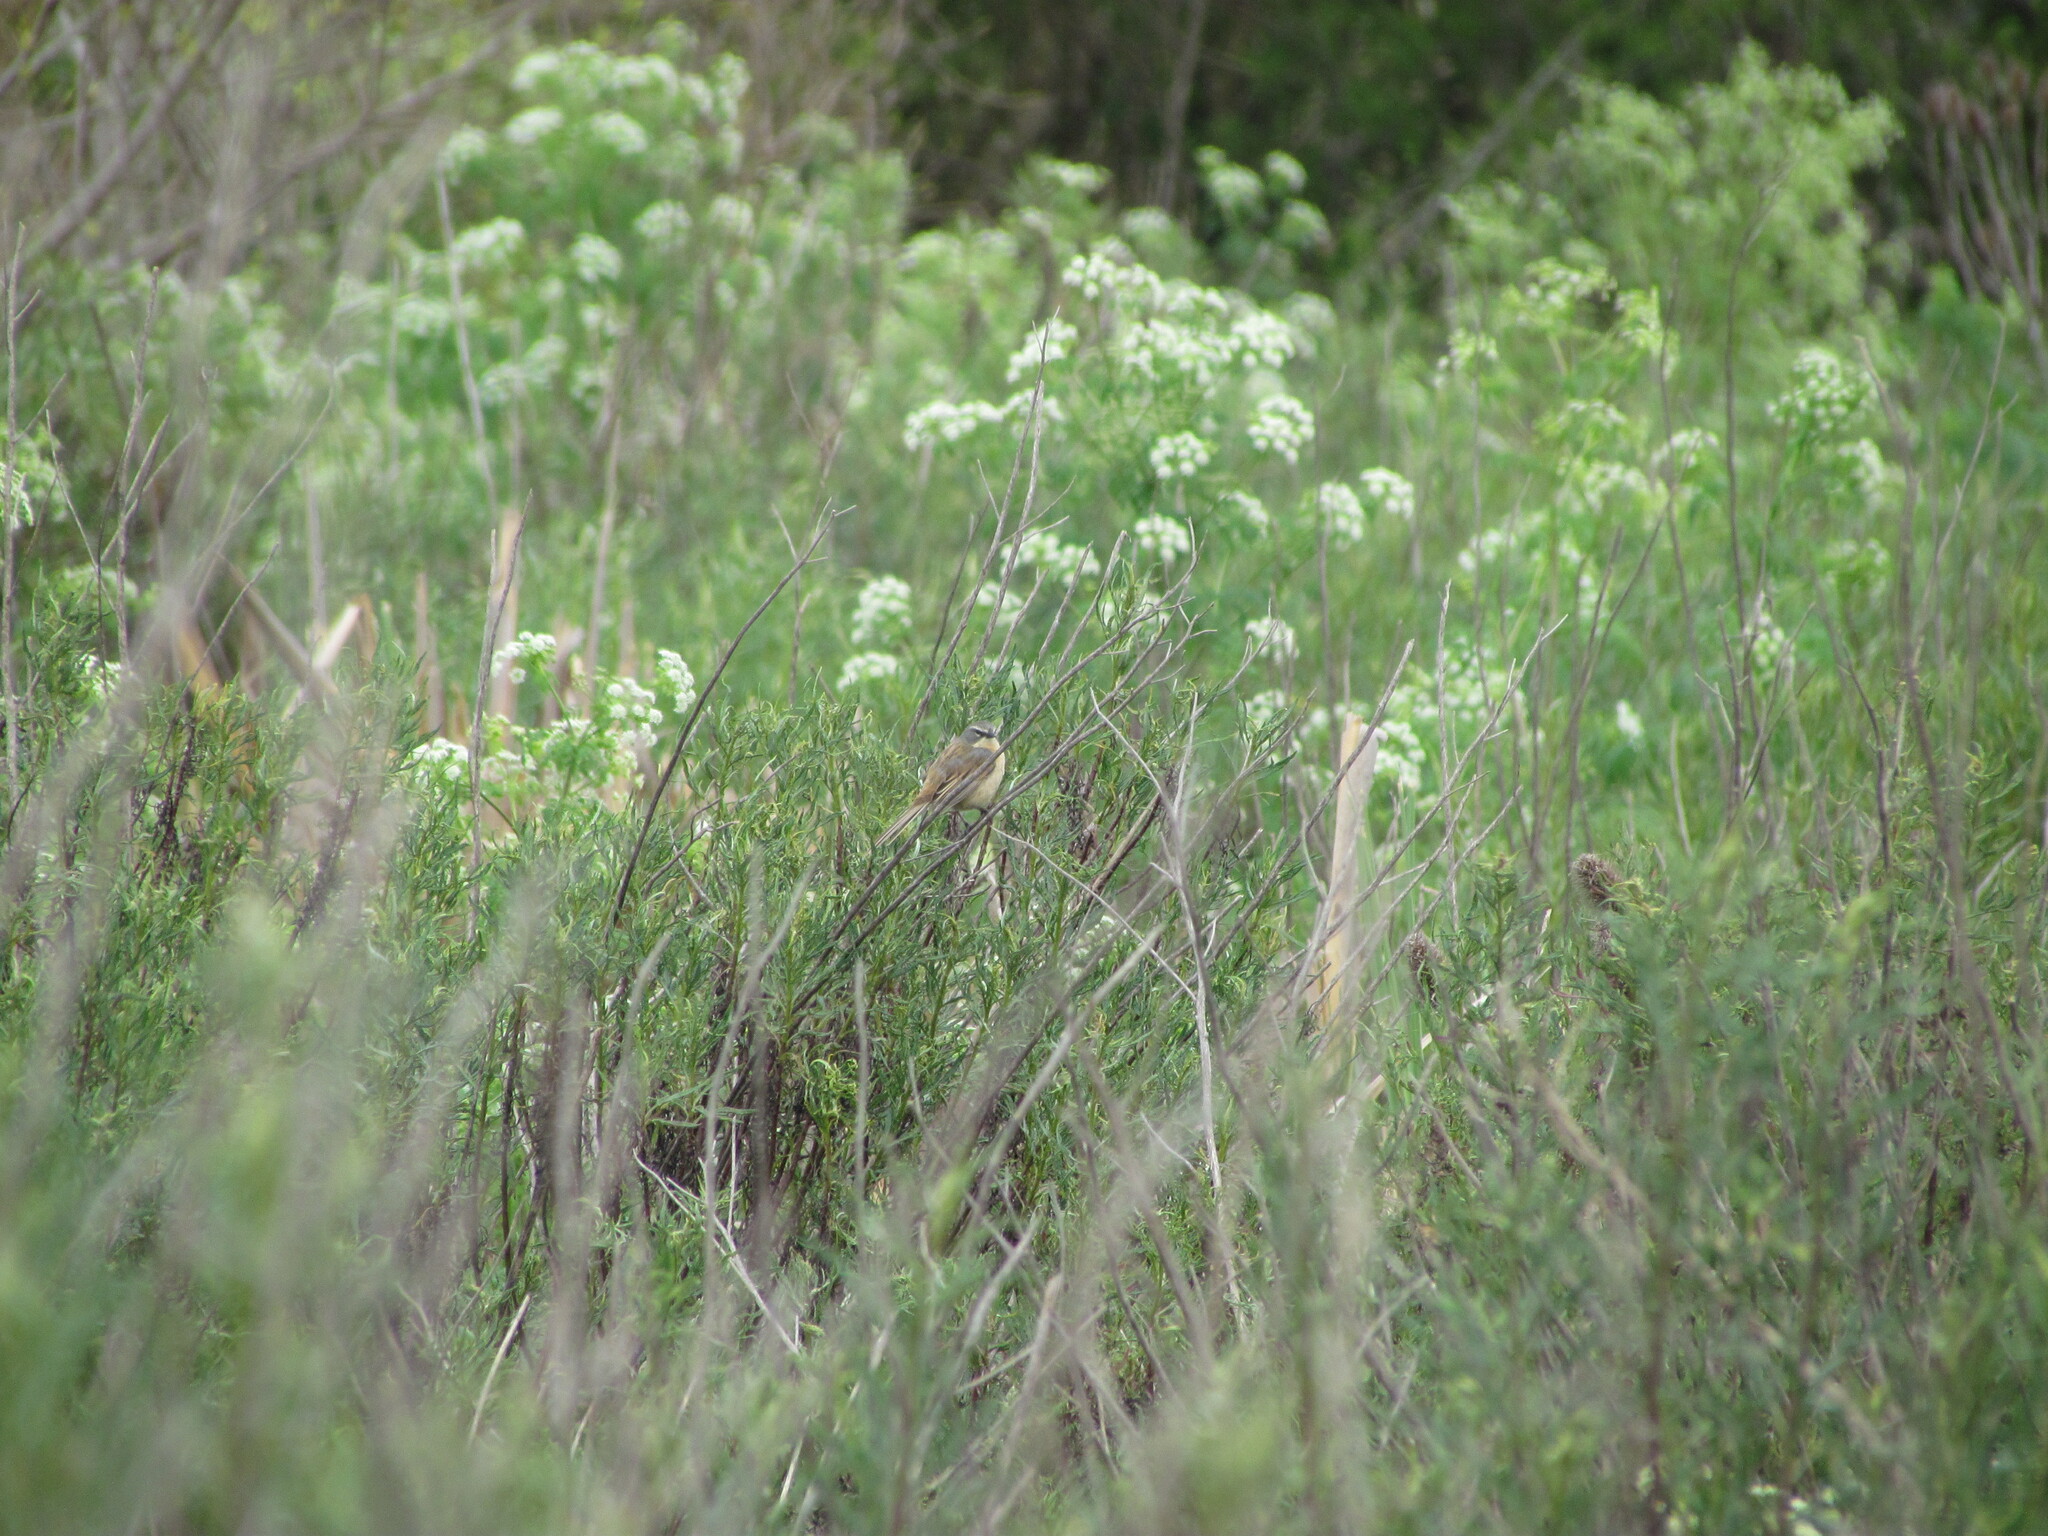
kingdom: Animalia
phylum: Chordata
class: Aves
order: Passeriformes
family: Thraupidae
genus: Donacospiza
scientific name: Donacospiza albifrons
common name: Long-tailed reed finch
